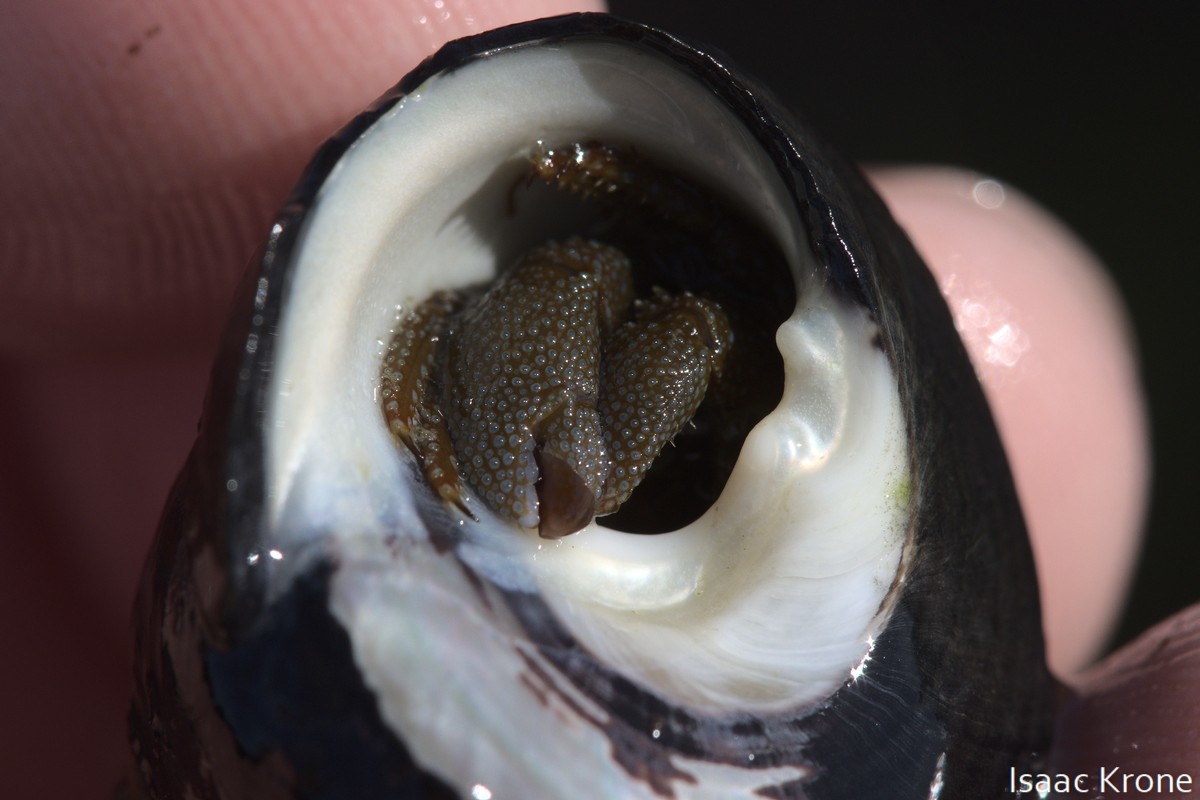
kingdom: Animalia
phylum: Arthropoda
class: Malacostraca
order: Decapoda
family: Paguridae
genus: Pagurus
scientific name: Pagurus granosimanus
